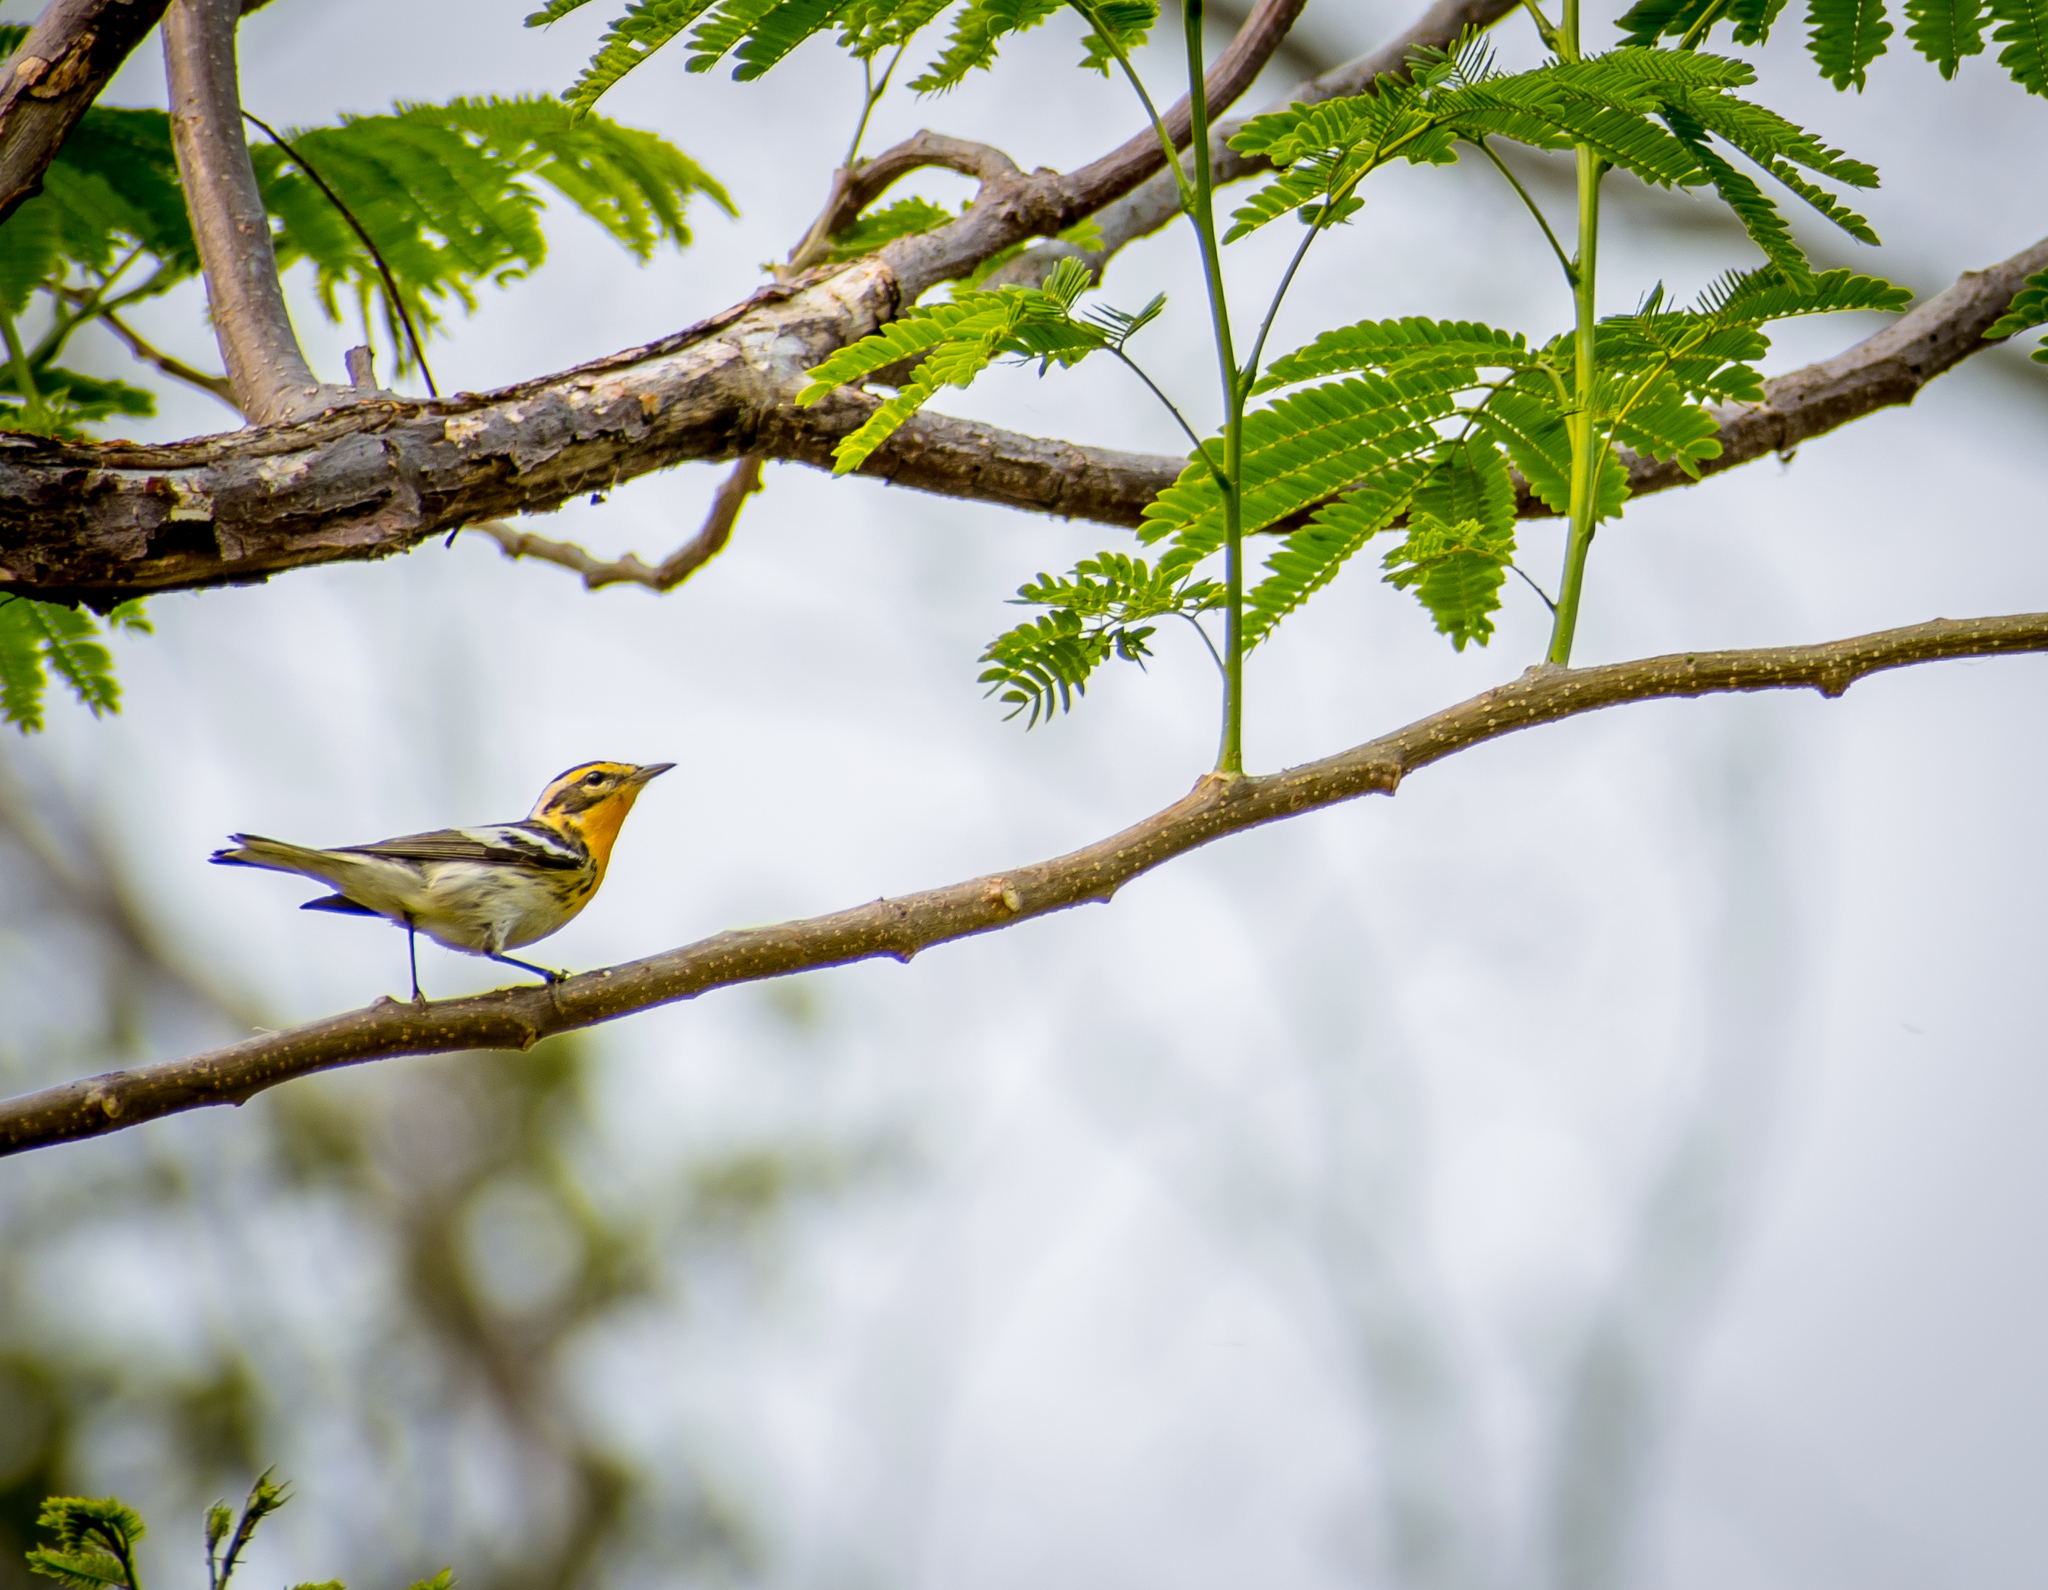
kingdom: Animalia
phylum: Chordata
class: Aves
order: Passeriformes
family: Parulidae
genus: Setophaga
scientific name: Setophaga fusca
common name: Blackburnian warbler
